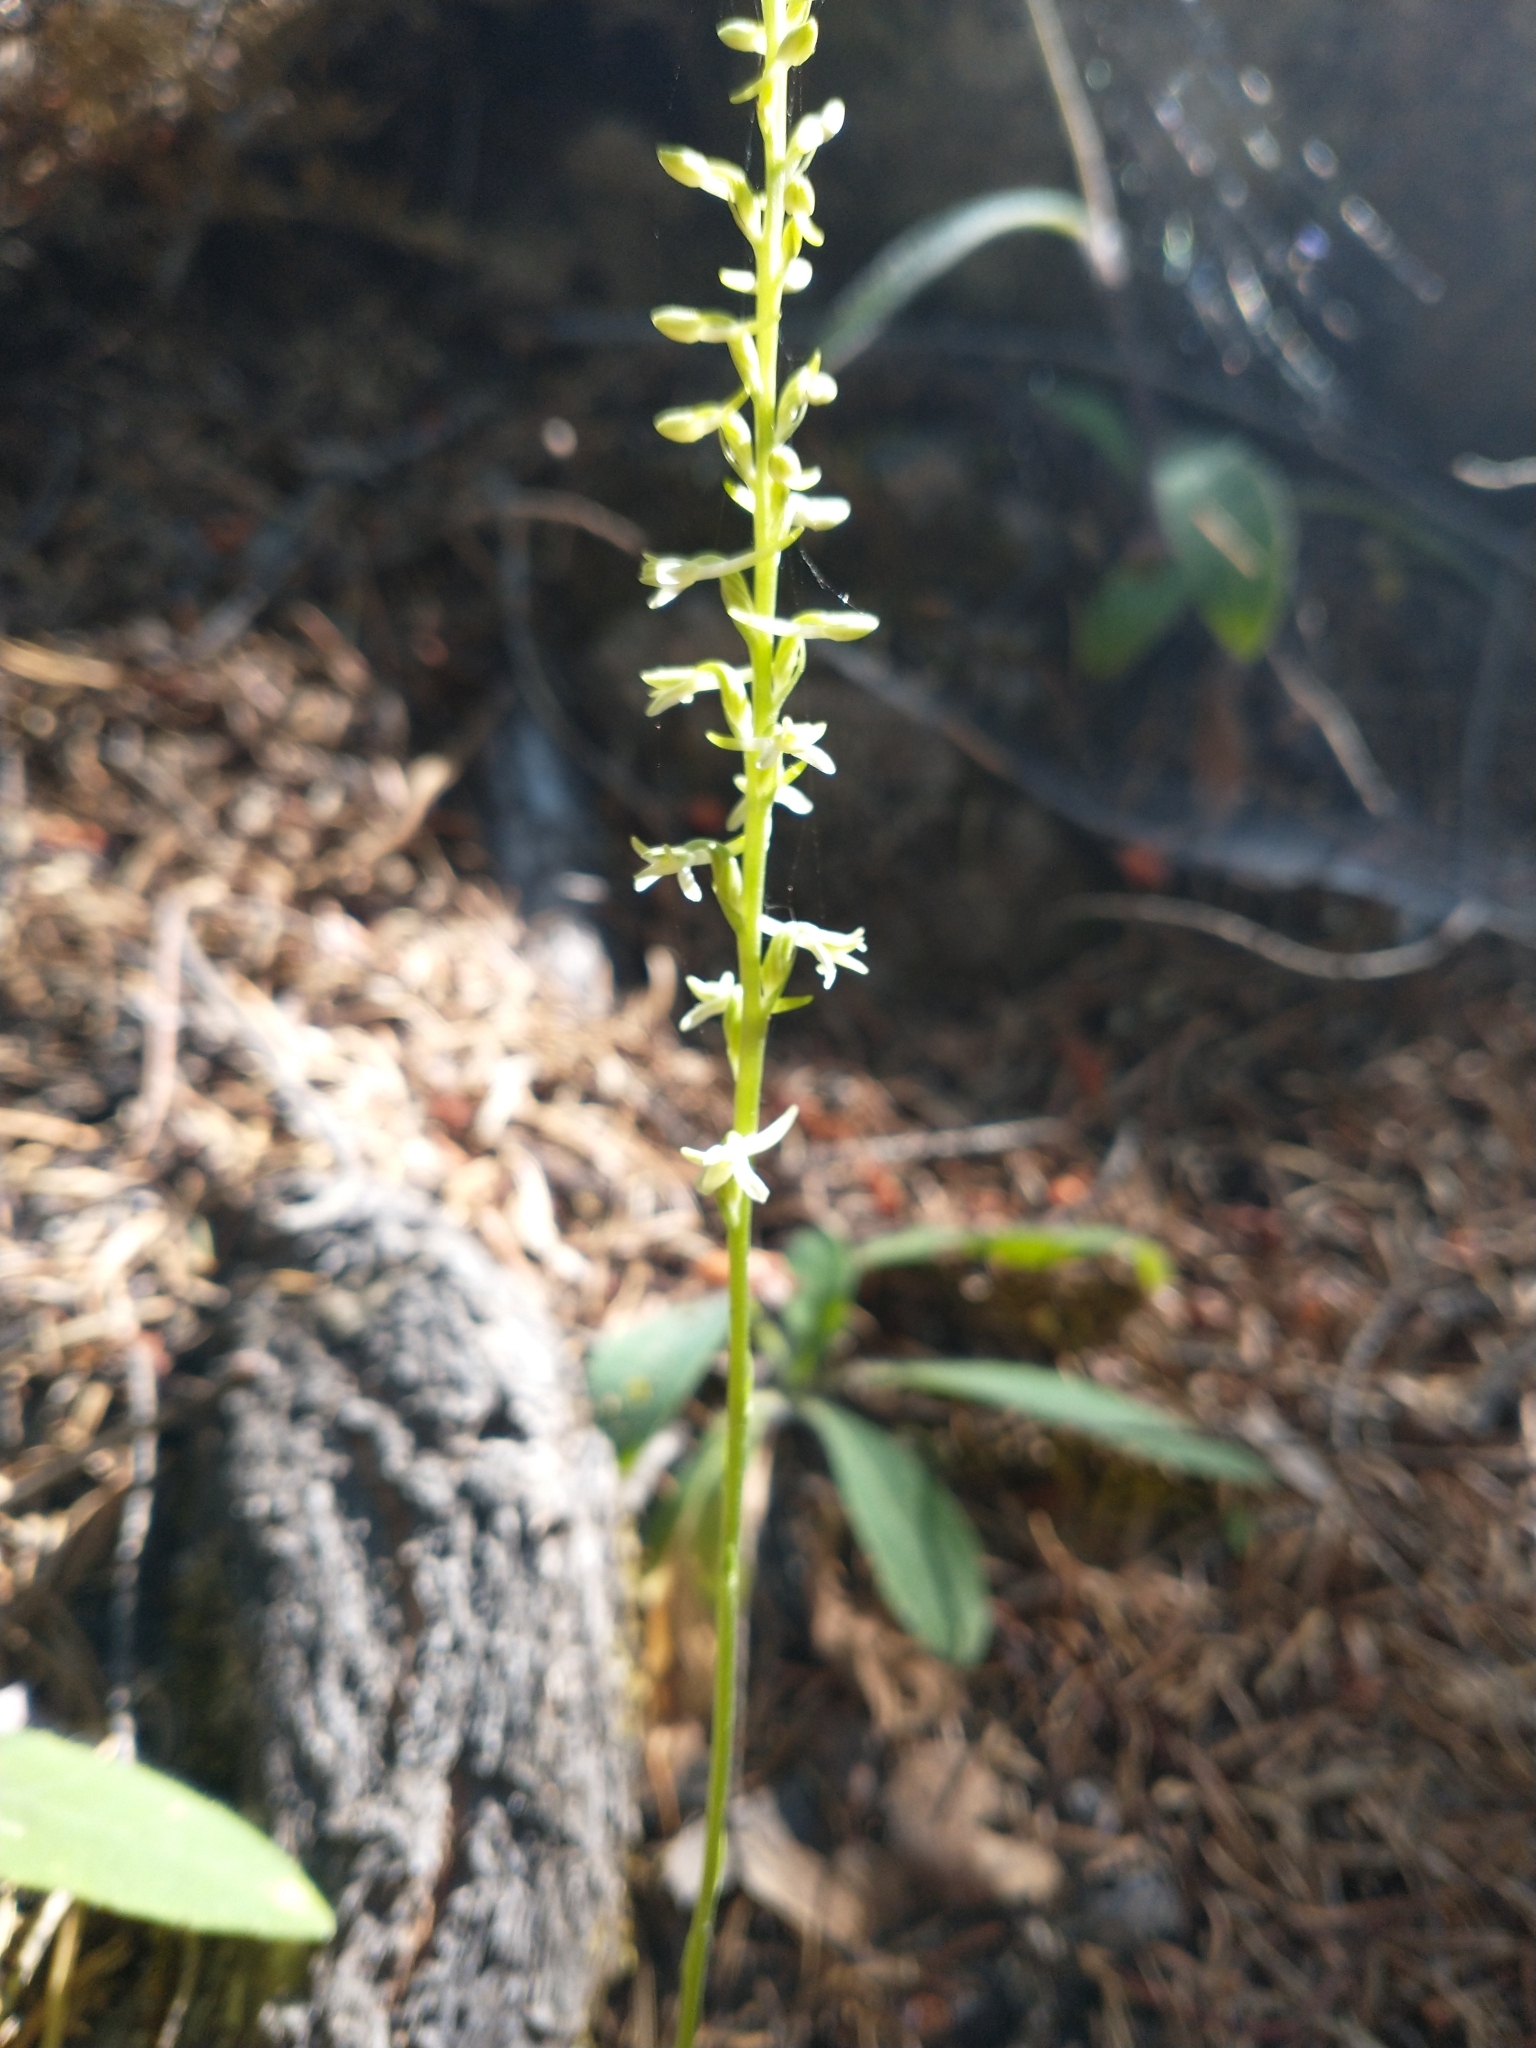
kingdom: Plantae
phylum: Tracheophyta
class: Liliopsida
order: Asparagales
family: Orchidaceae
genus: Platanthera
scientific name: Platanthera transversa
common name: Royal rein orchid
